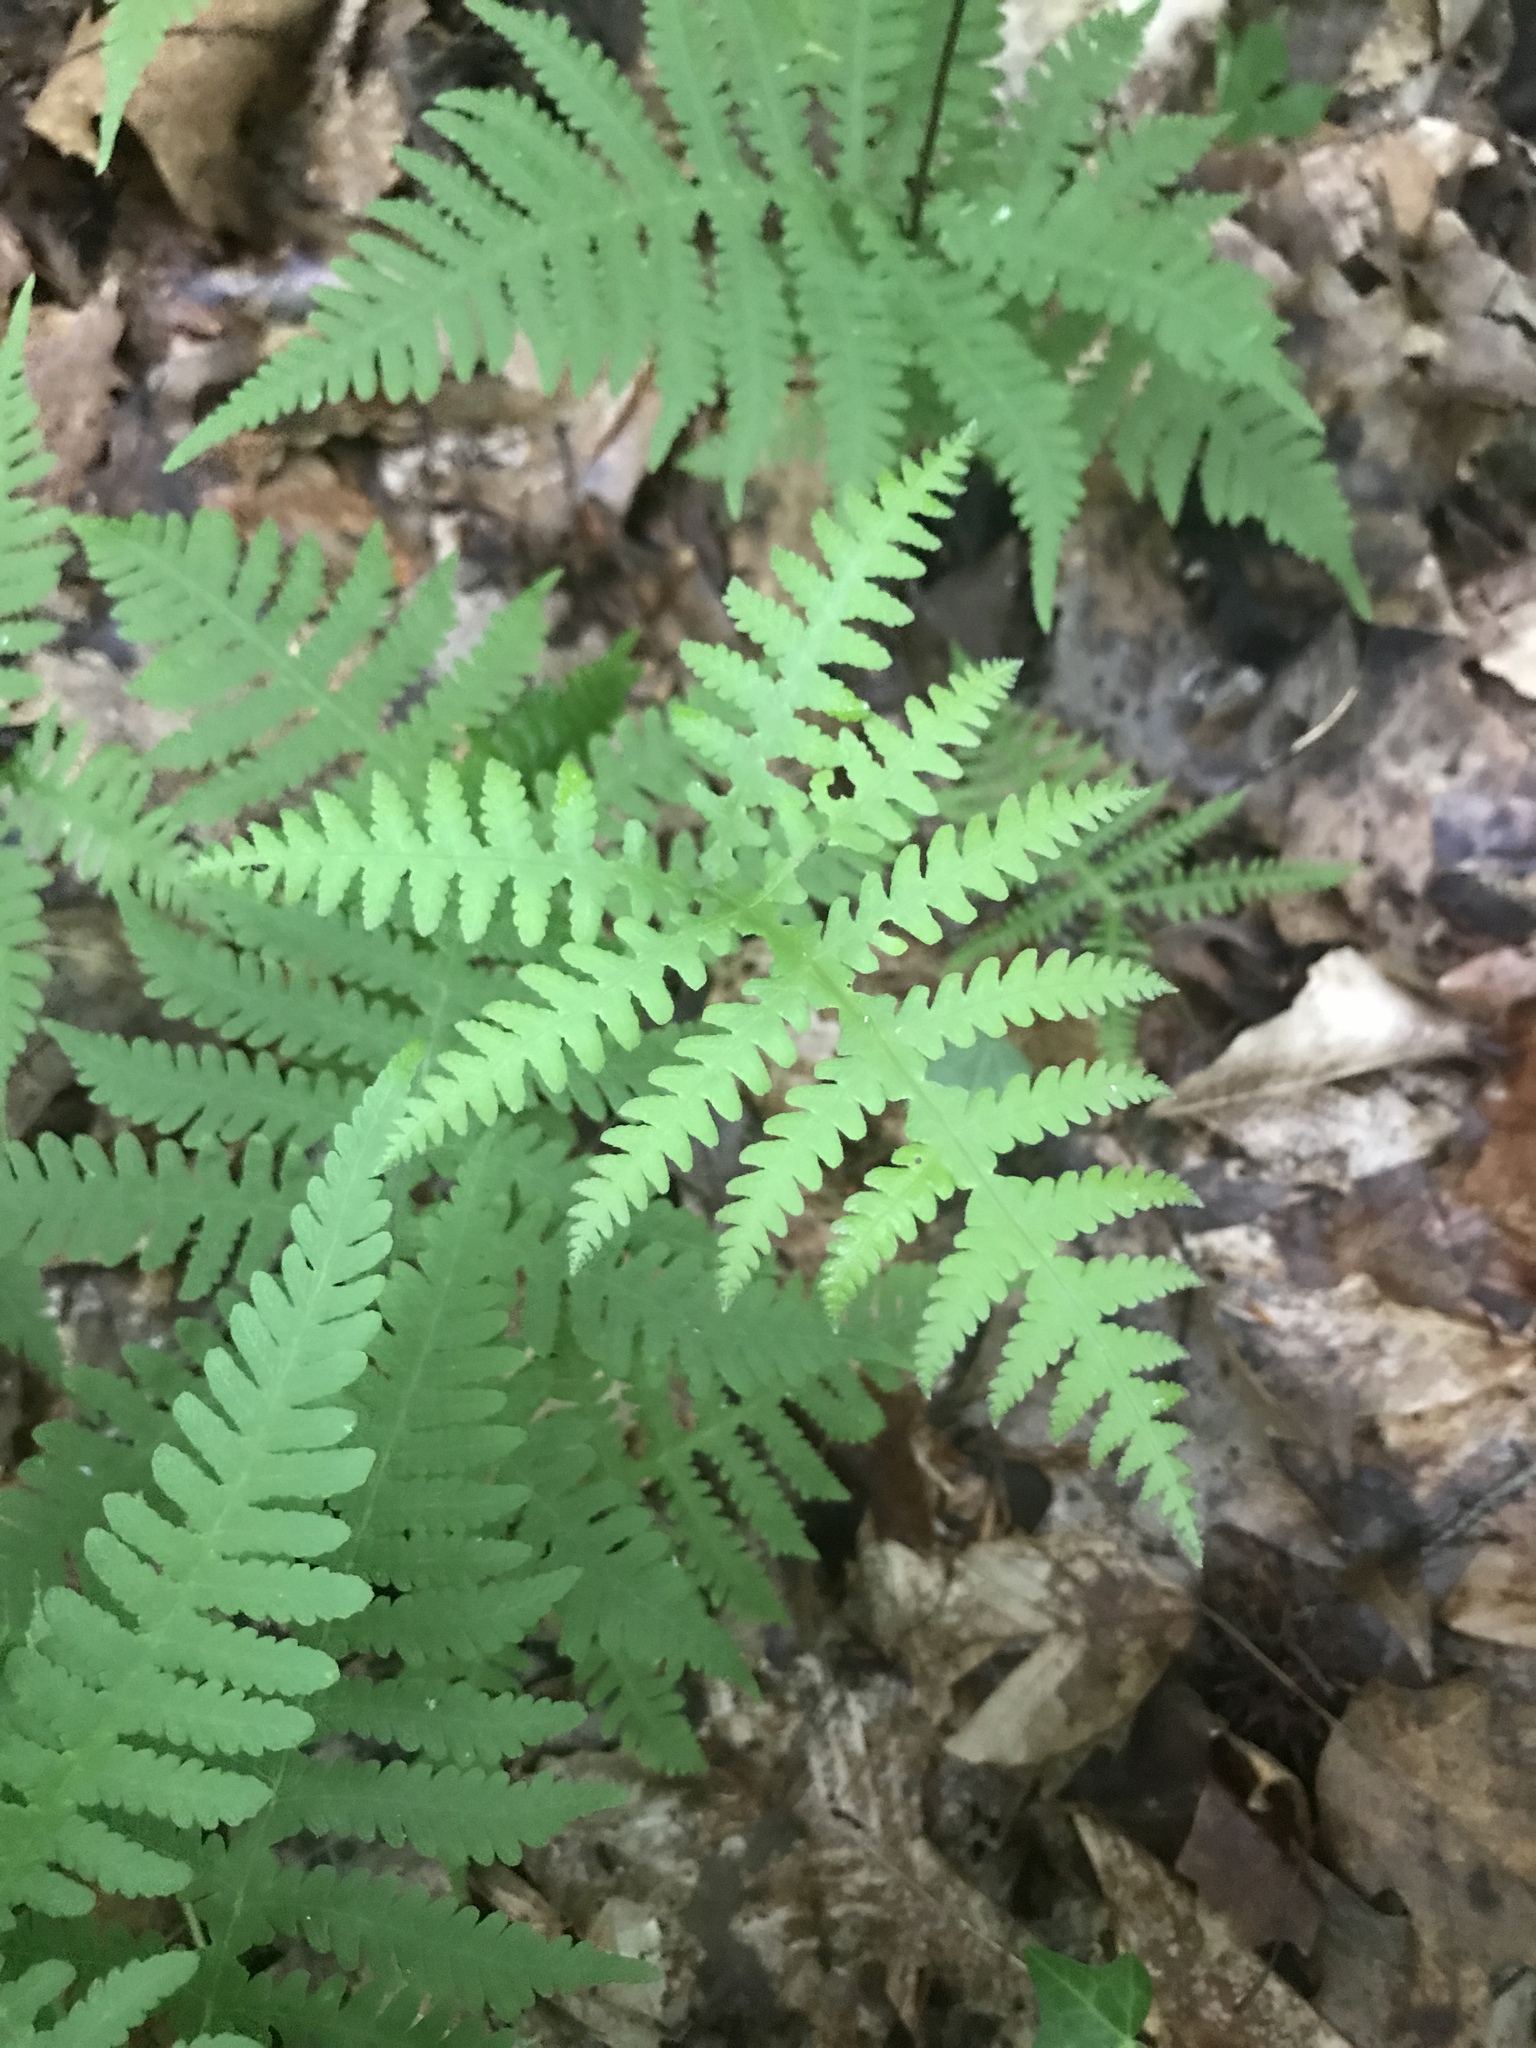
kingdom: Plantae
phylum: Tracheophyta
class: Polypodiopsida
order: Polypodiales
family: Thelypteridaceae
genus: Phegopteris
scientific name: Phegopteris hexagonoptera
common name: Broad beech fern
